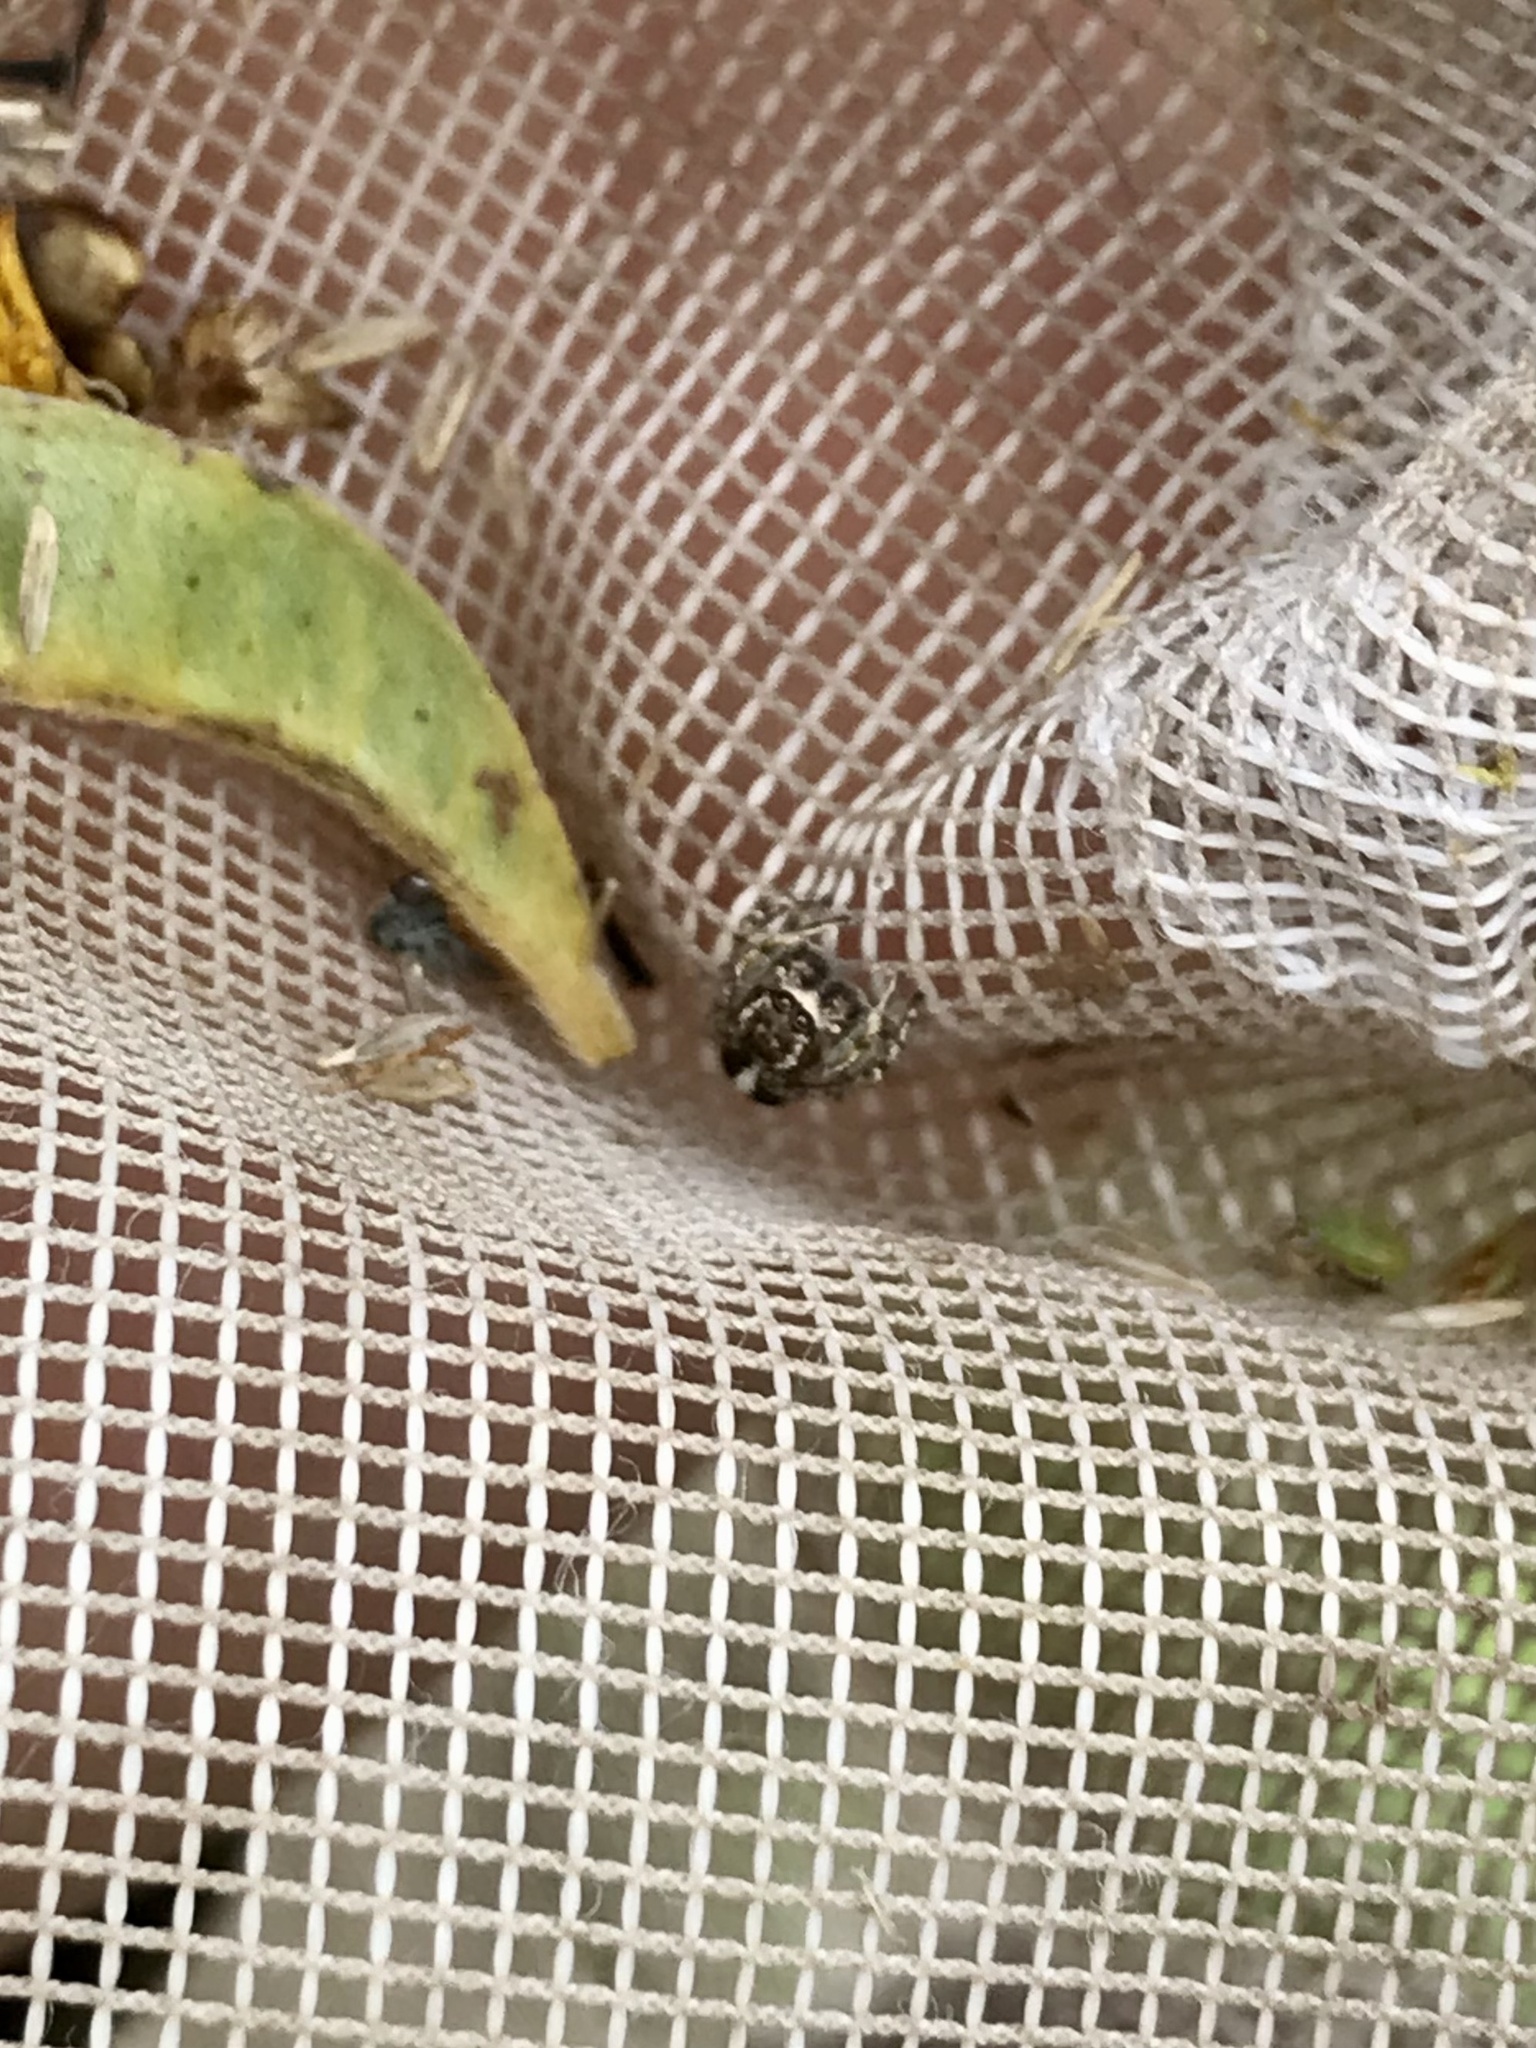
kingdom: Animalia
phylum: Arthropoda
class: Arachnida
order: Araneae
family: Salticidae
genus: Habronattus
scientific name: Habronattus cognatus
